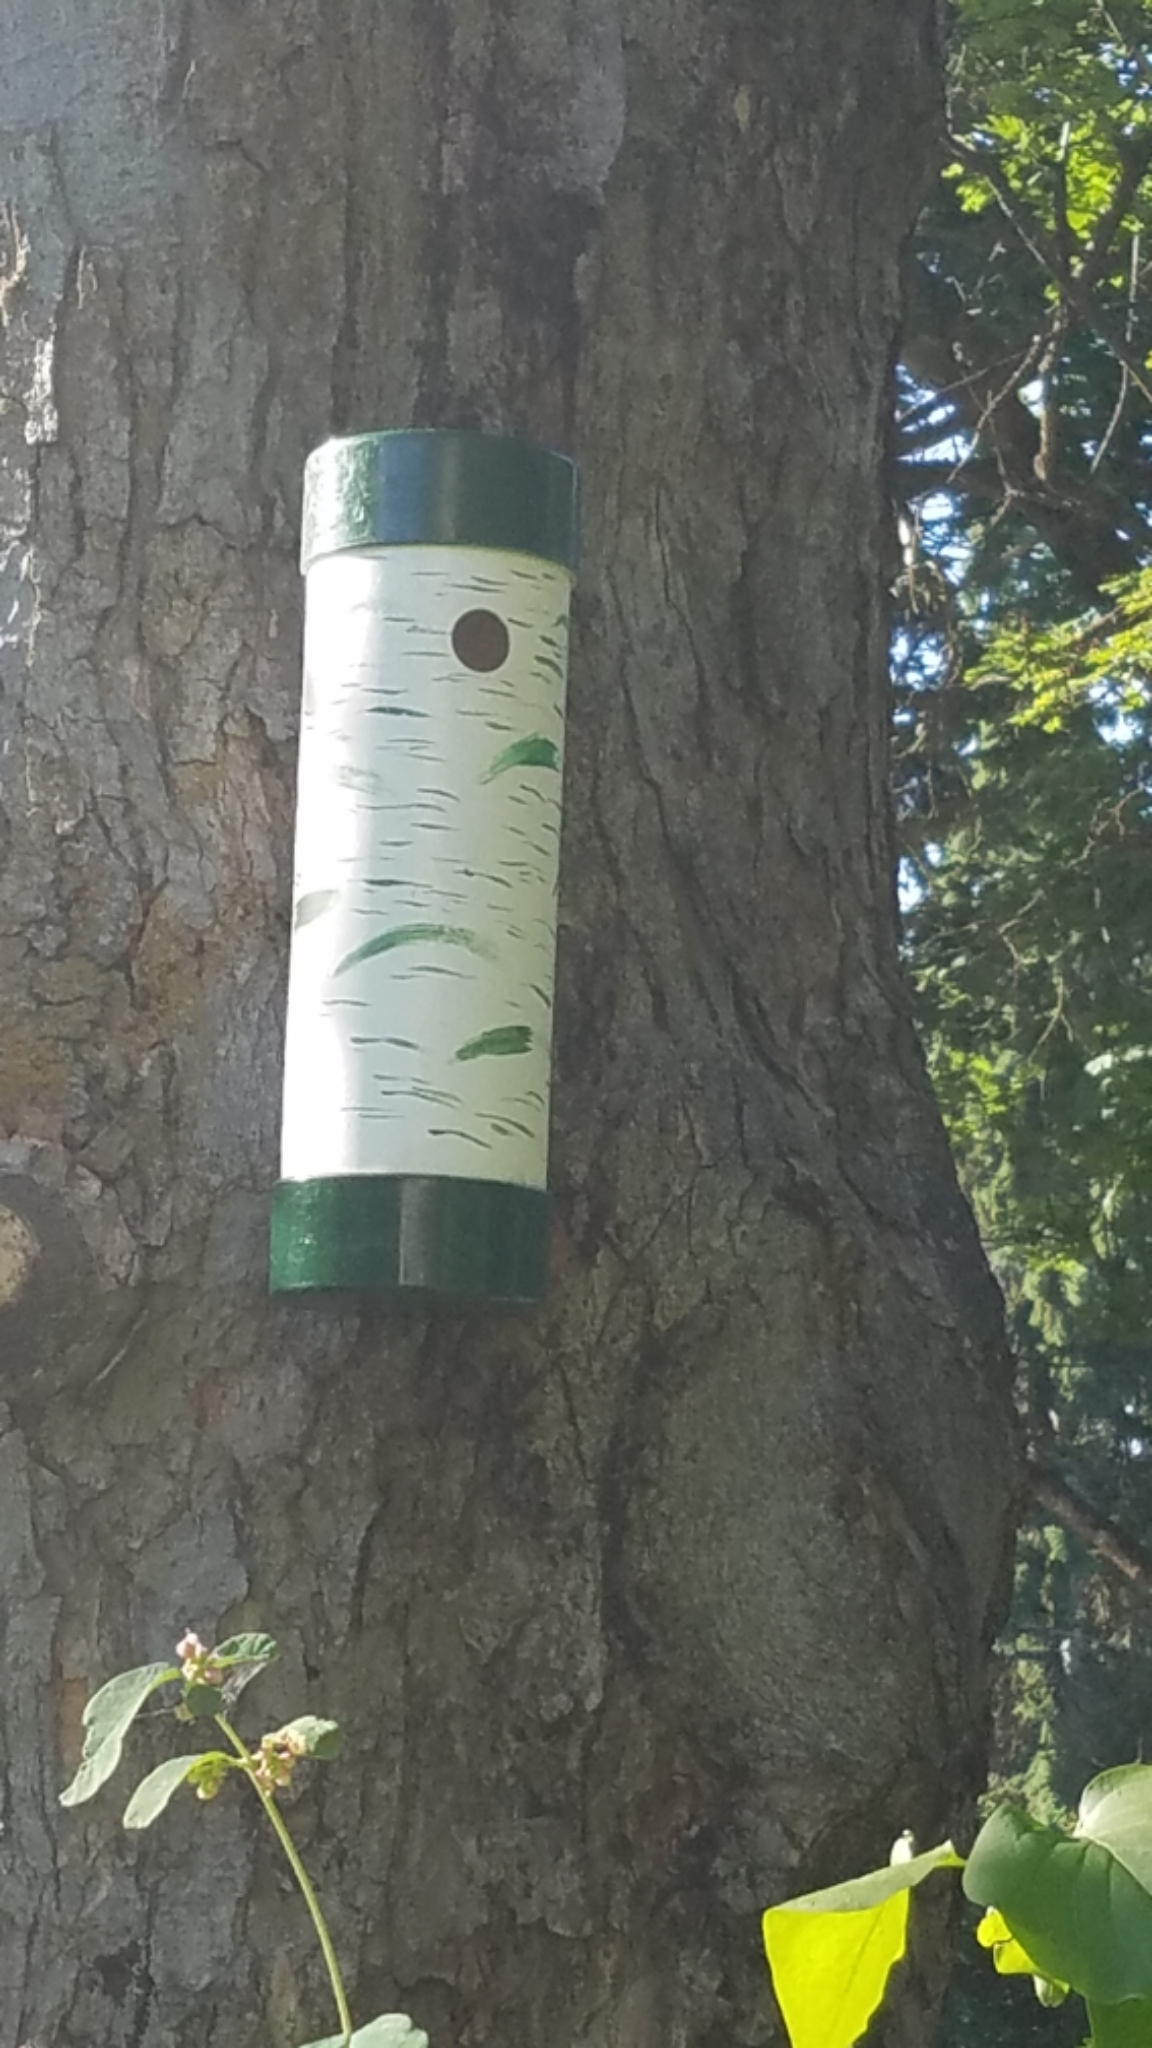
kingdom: Animalia
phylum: Chordata
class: Aves
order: Passeriformes
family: Troglodytidae
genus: Troglodytes
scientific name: Troglodytes aedon
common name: House wren
